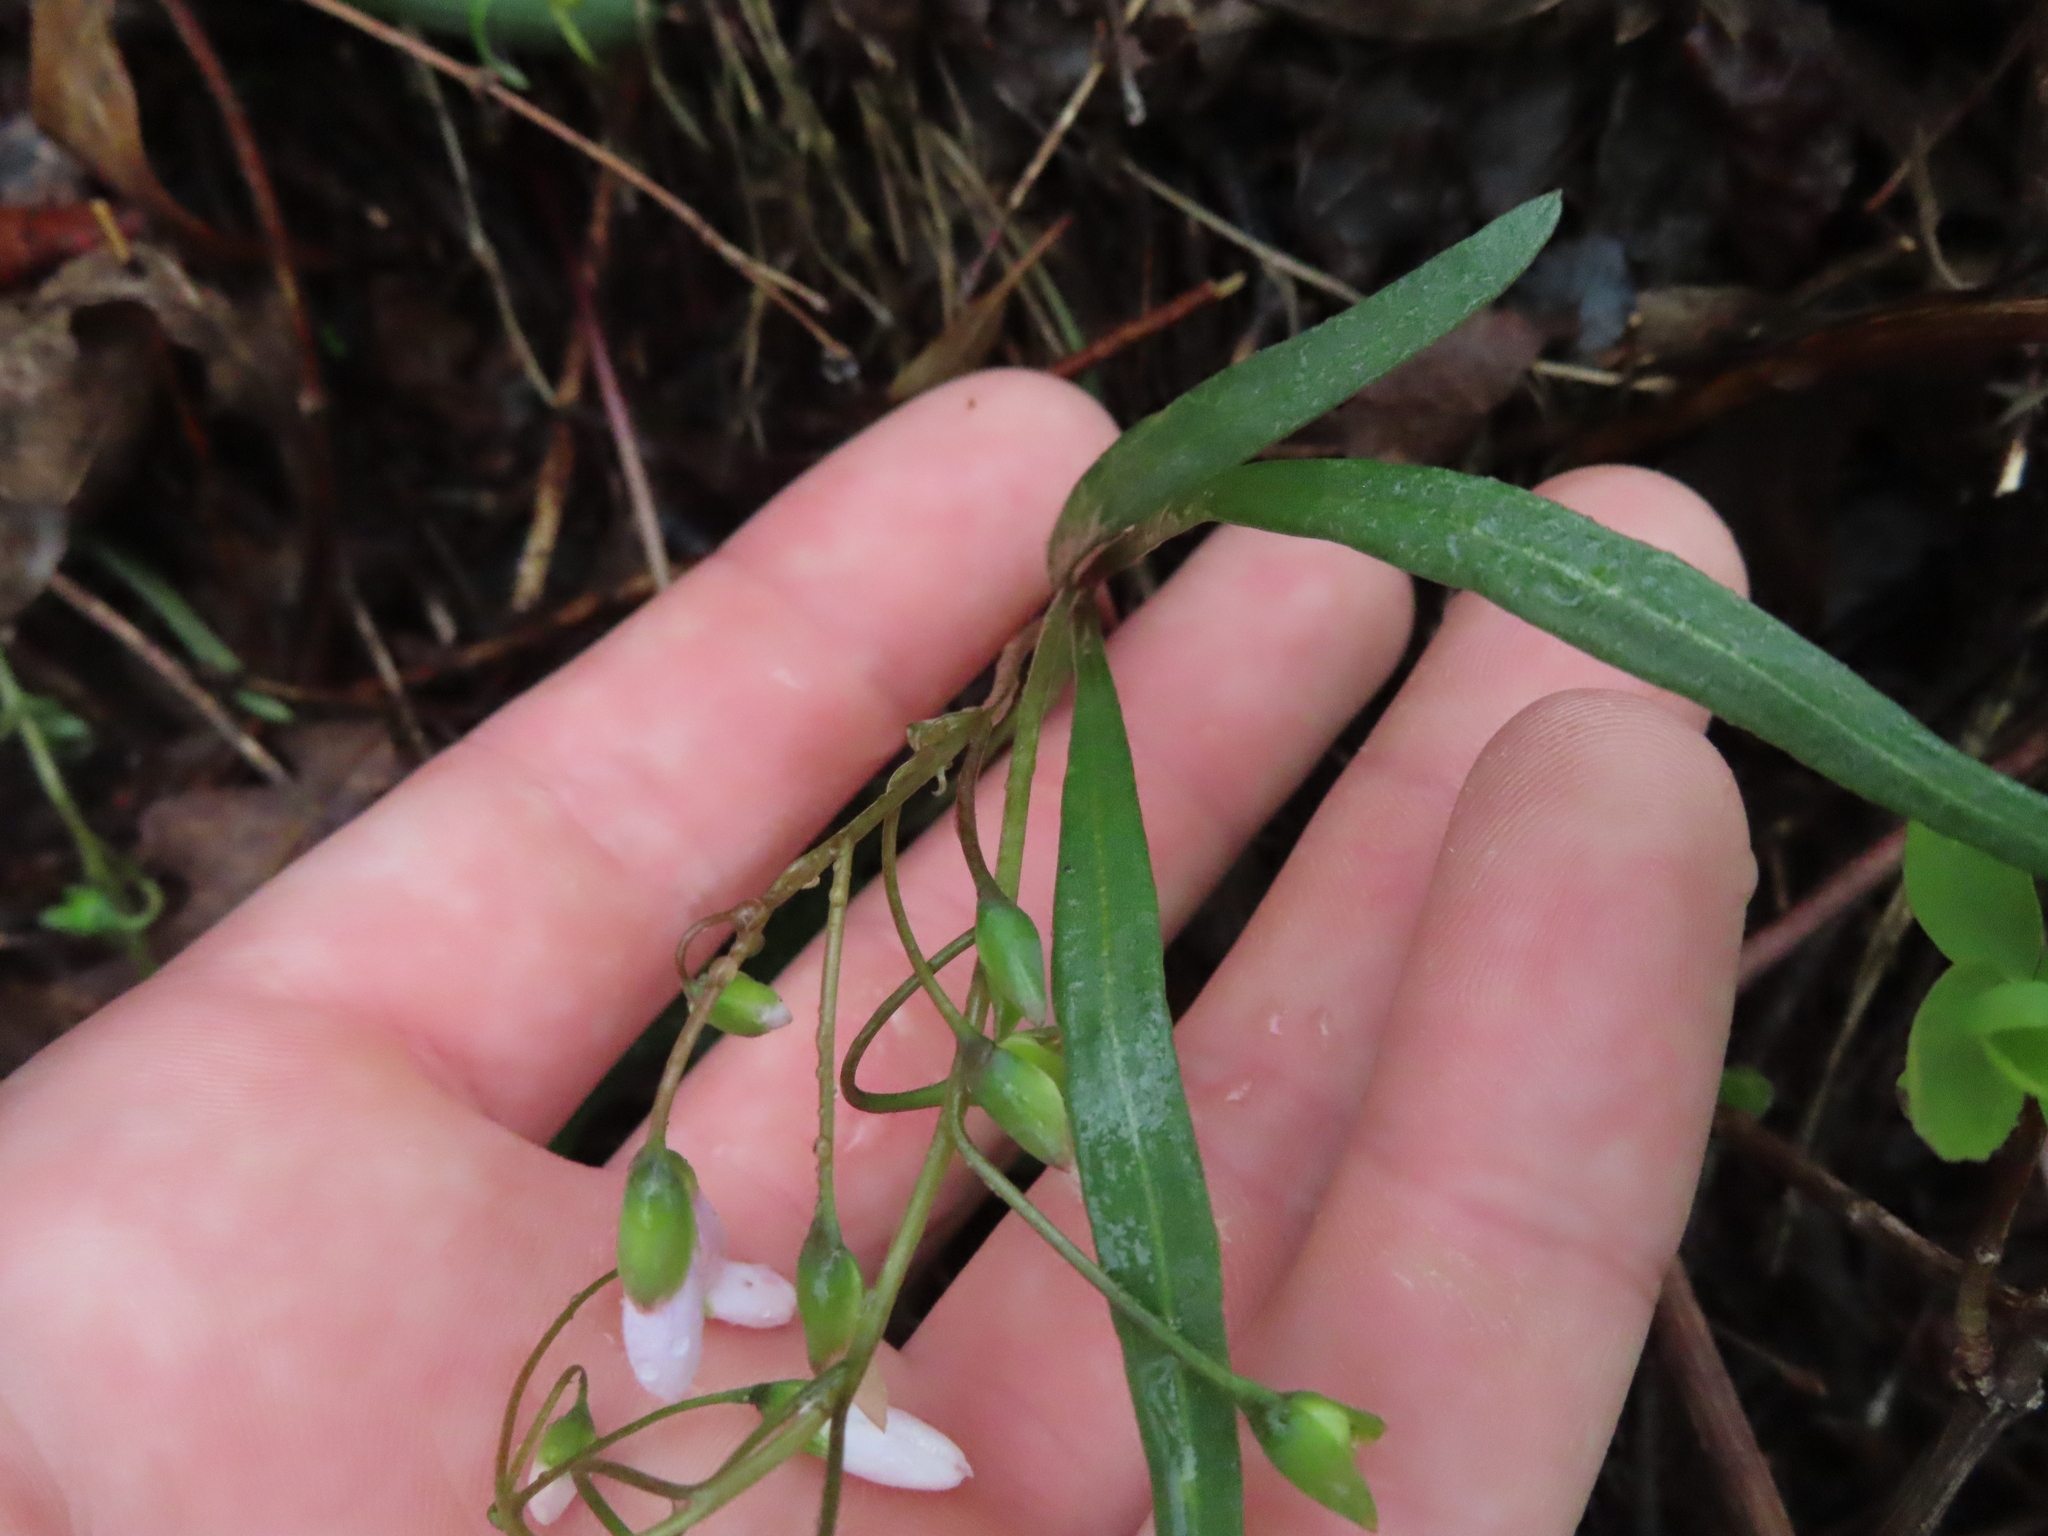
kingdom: Plantae
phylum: Tracheophyta
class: Magnoliopsida
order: Caryophyllales
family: Montiaceae
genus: Claytonia
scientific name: Claytonia rosea
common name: Rocky mountain spring-beauty
